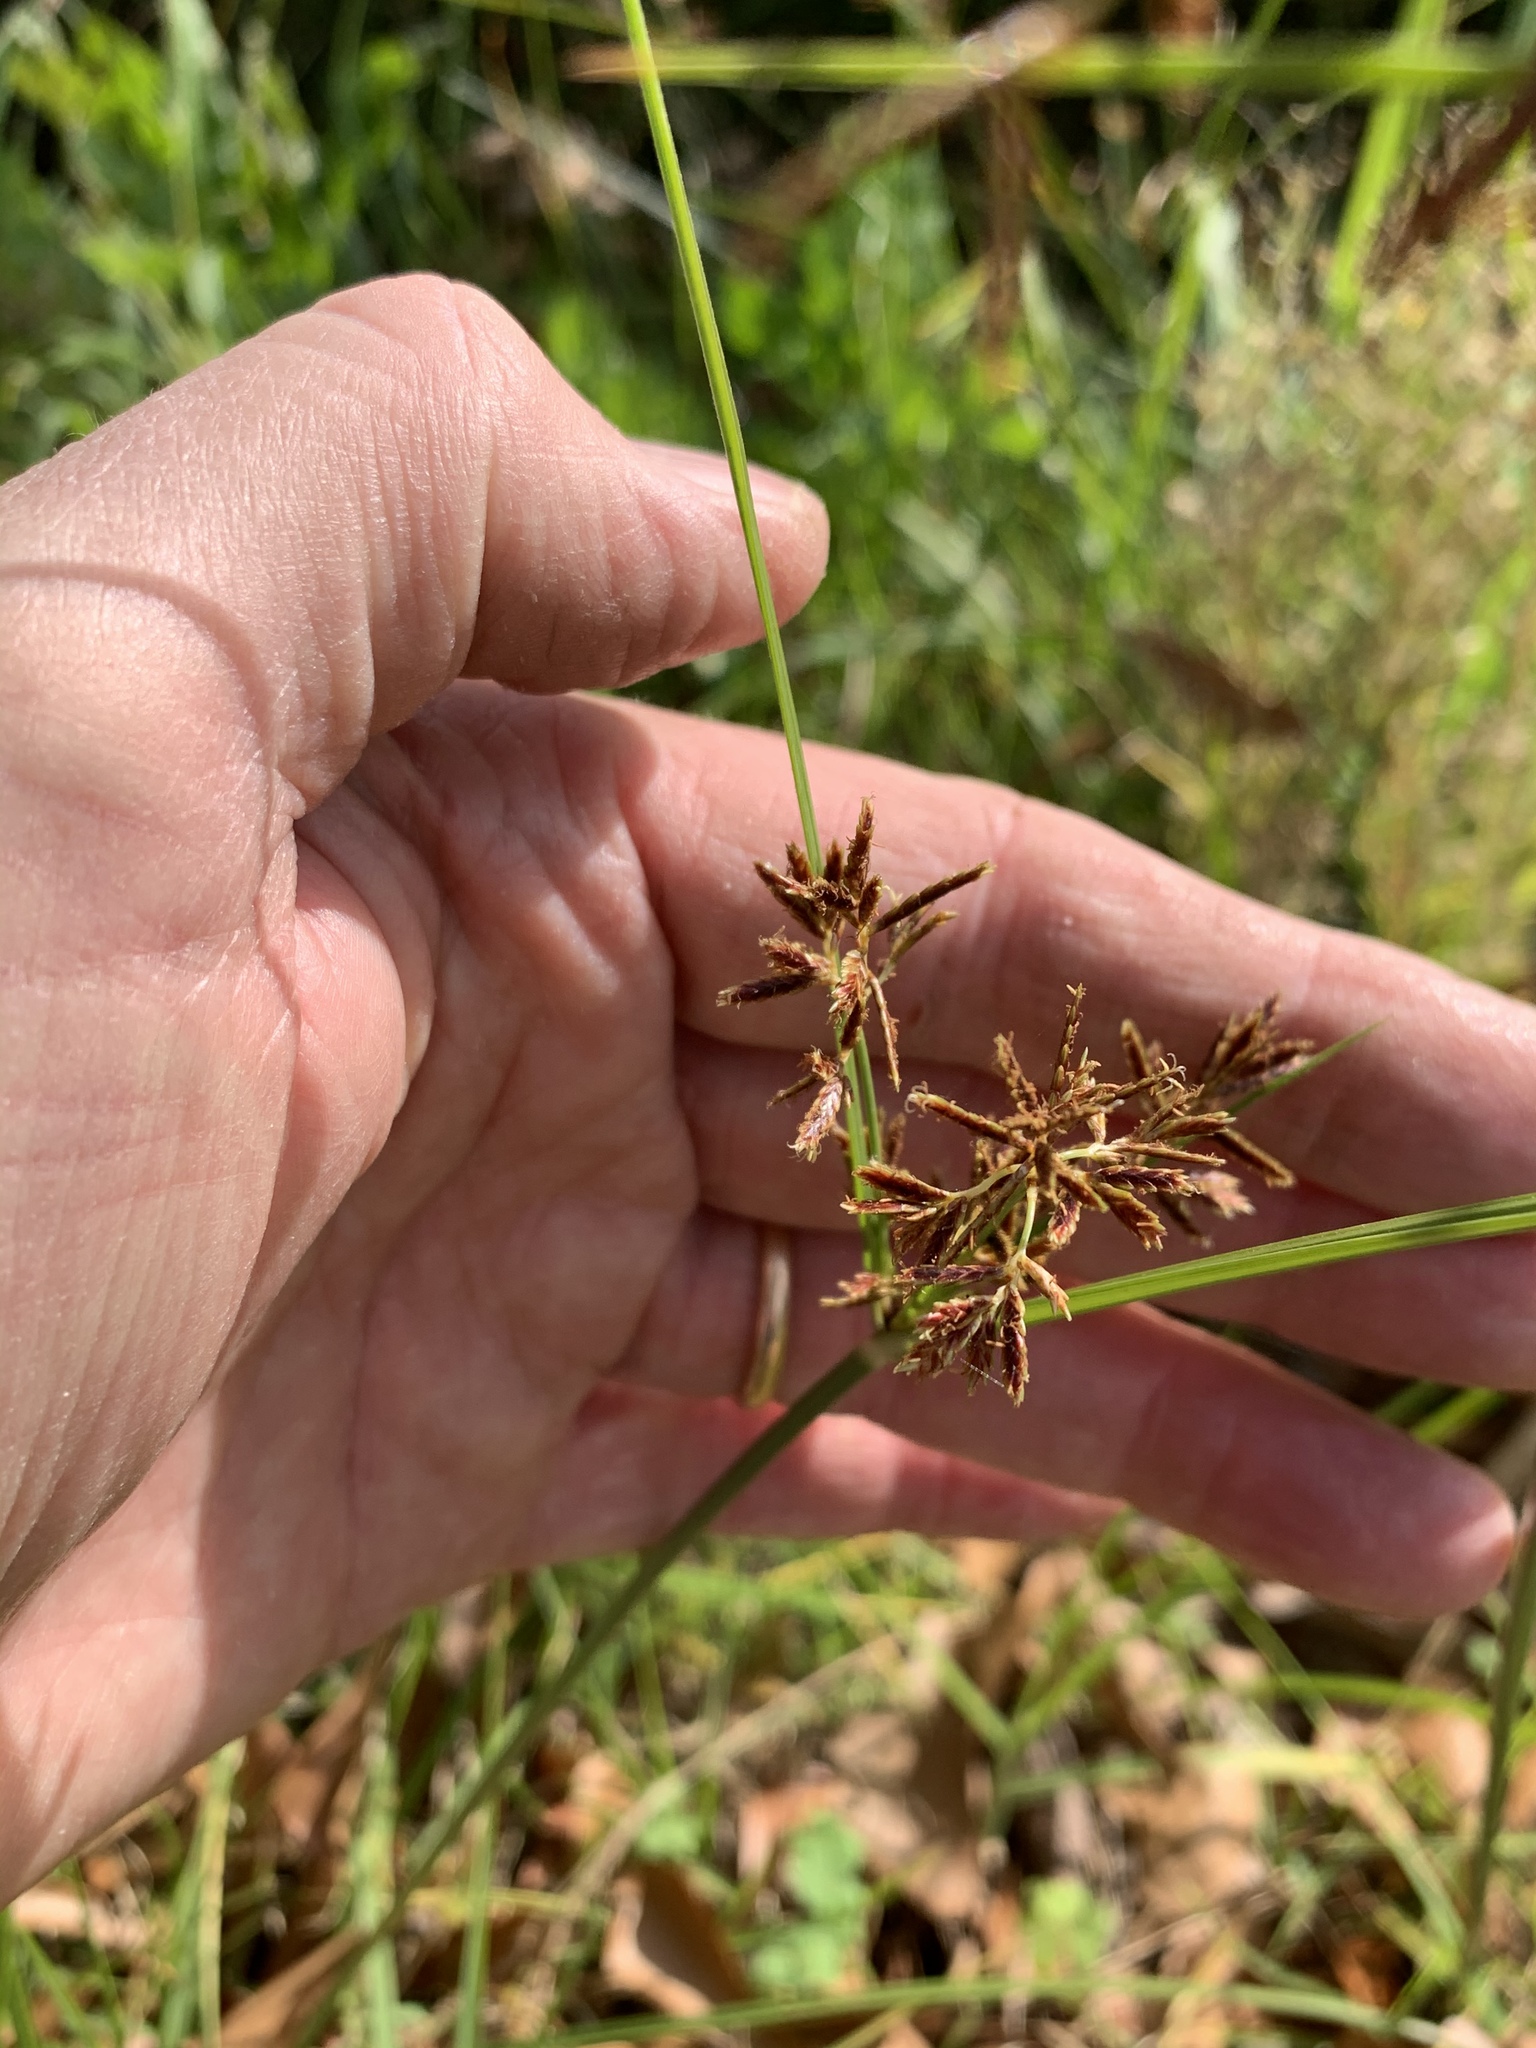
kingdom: Plantae
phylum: Tracheophyta
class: Liliopsida
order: Poales
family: Cyperaceae
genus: Cyperus
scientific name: Cyperus longus
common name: Galingale
